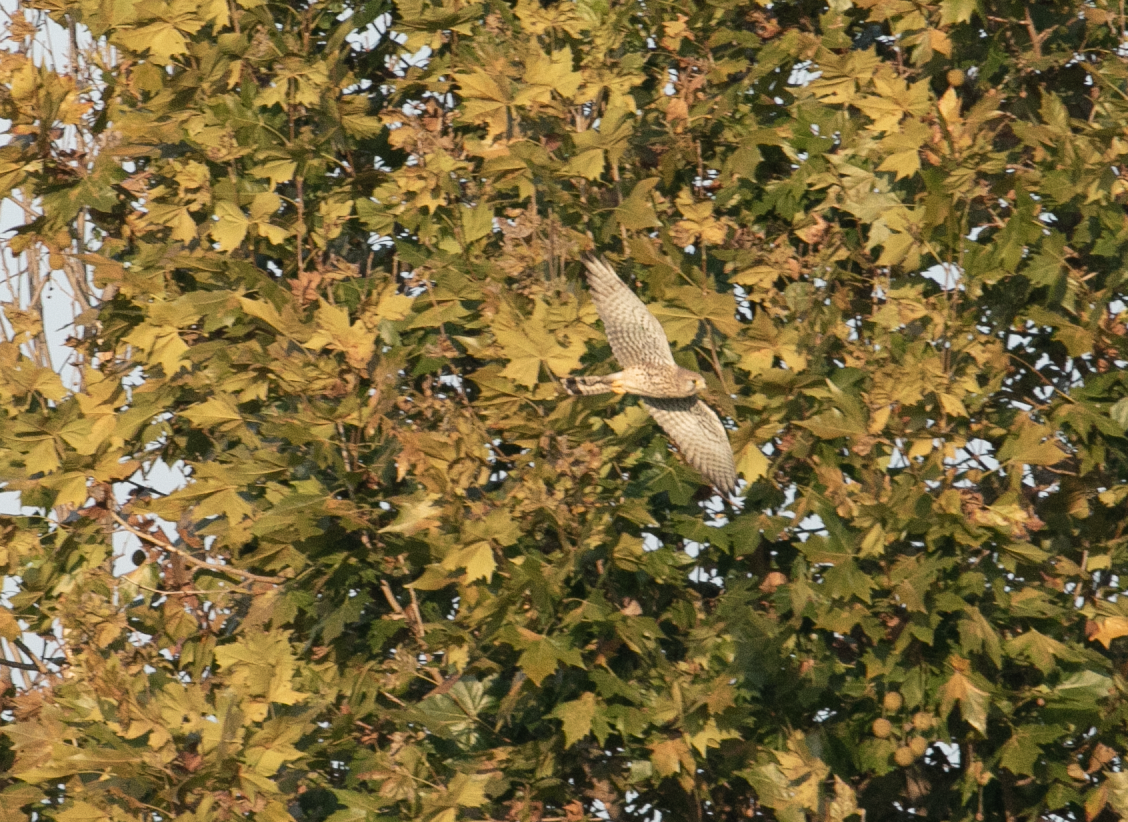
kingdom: Animalia
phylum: Chordata
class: Aves
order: Falconiformes
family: Falconidae
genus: Falco
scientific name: Falco tinnunculus
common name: Common kestrel
